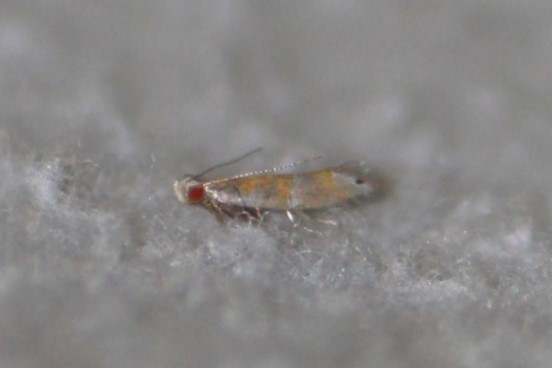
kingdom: Animalia
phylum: Arthropoda
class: Insecta
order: Lepidoptera
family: Gelechiidae
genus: Battaristis
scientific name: Battaristis vittella
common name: Orange stripe-backed moth
